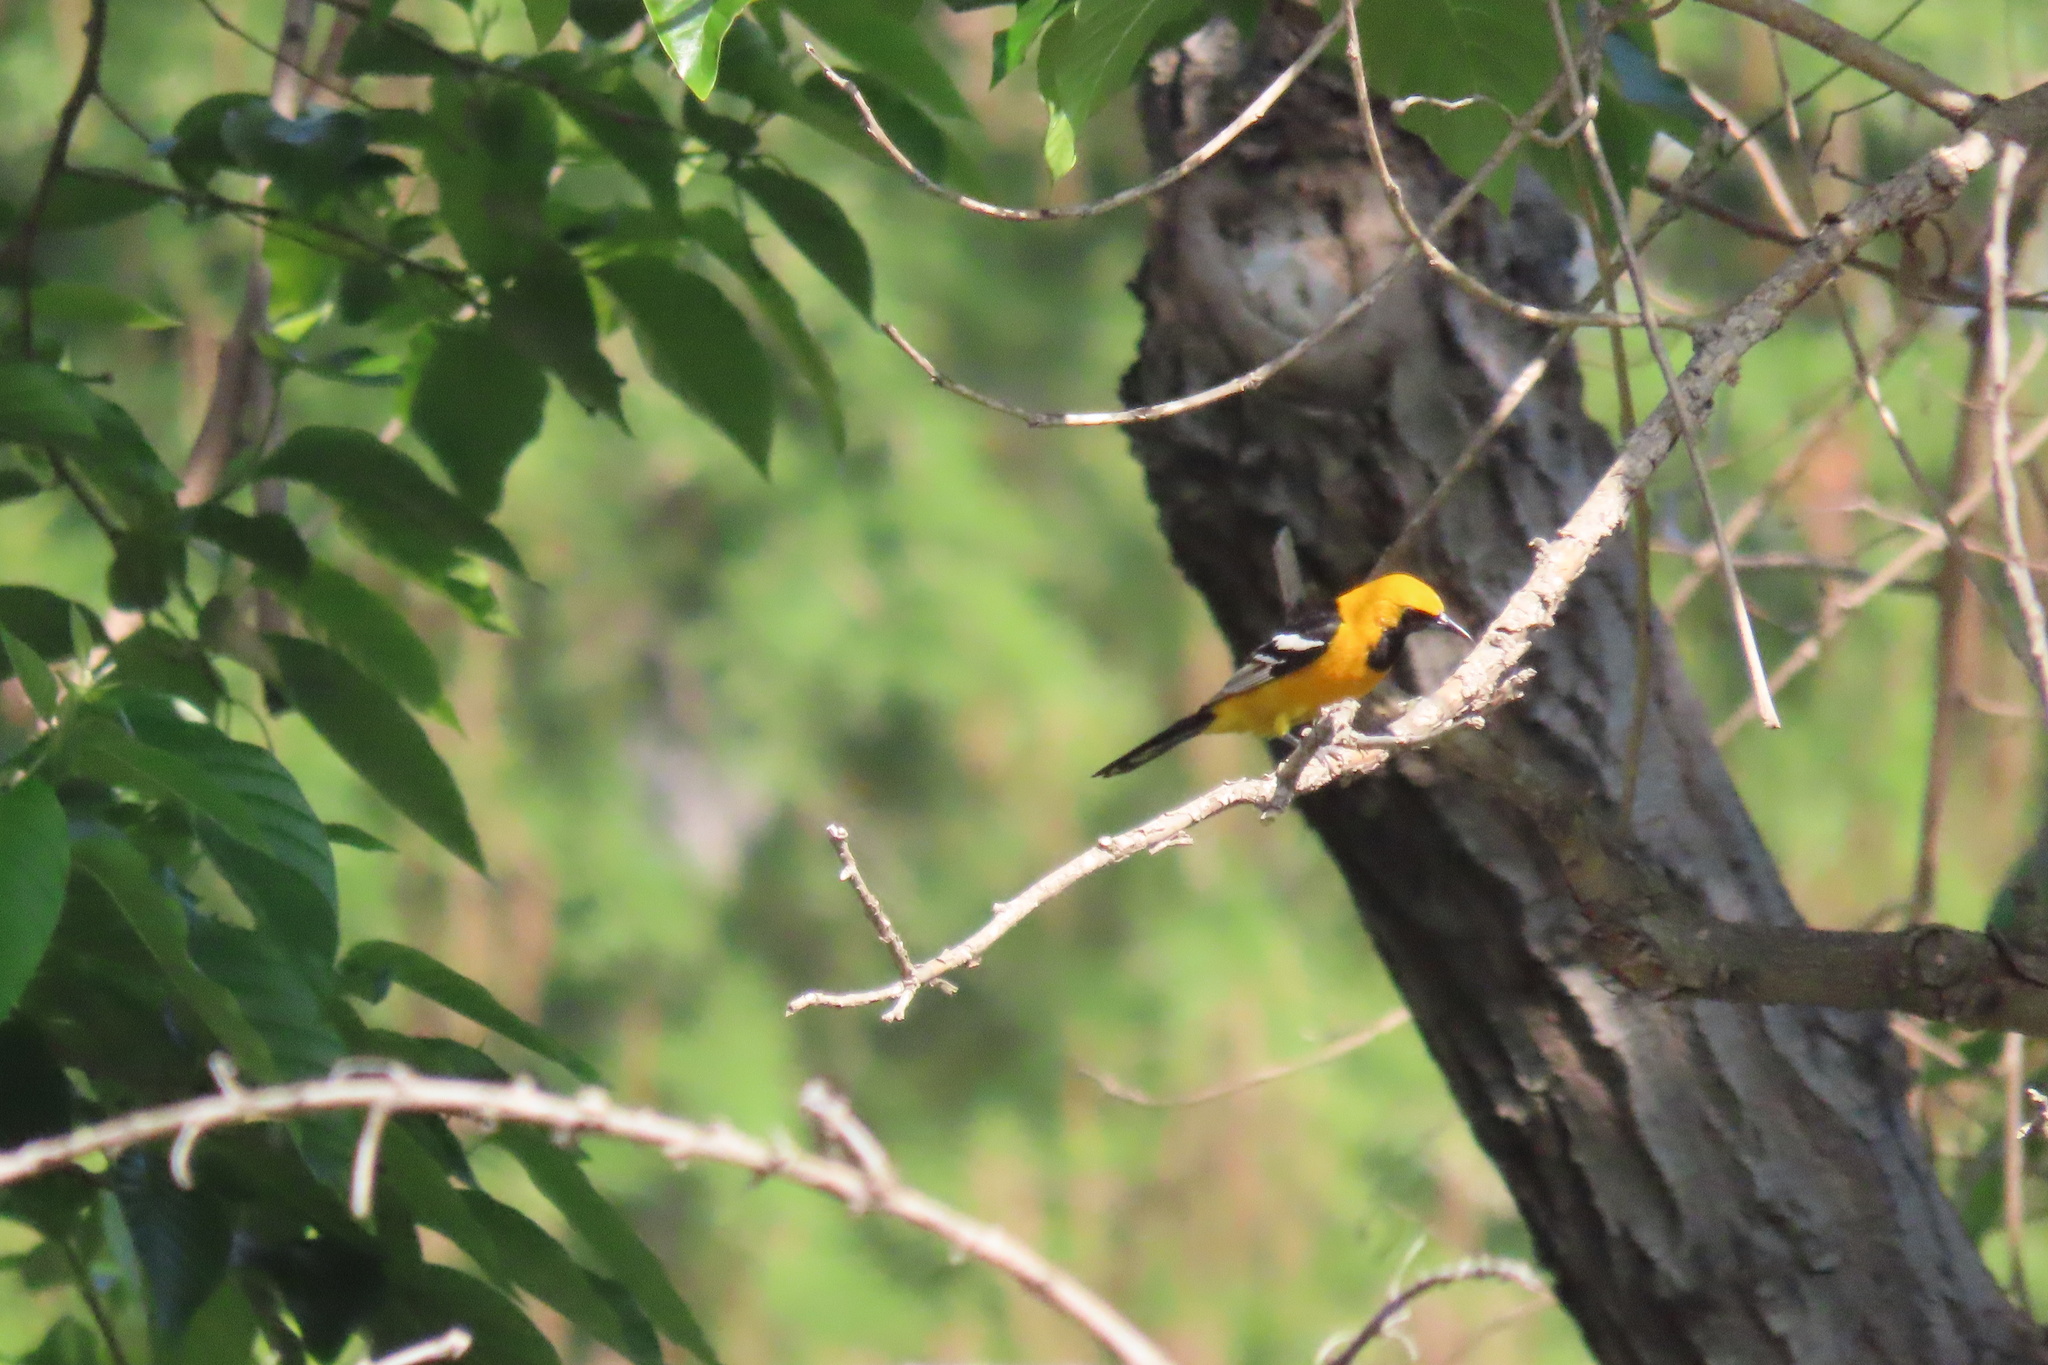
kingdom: Animalia
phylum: Chordata
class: Aves
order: Passeriformes
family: Icteridae
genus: Icterus
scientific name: Icterus cucullatus
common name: Hooded oriole
